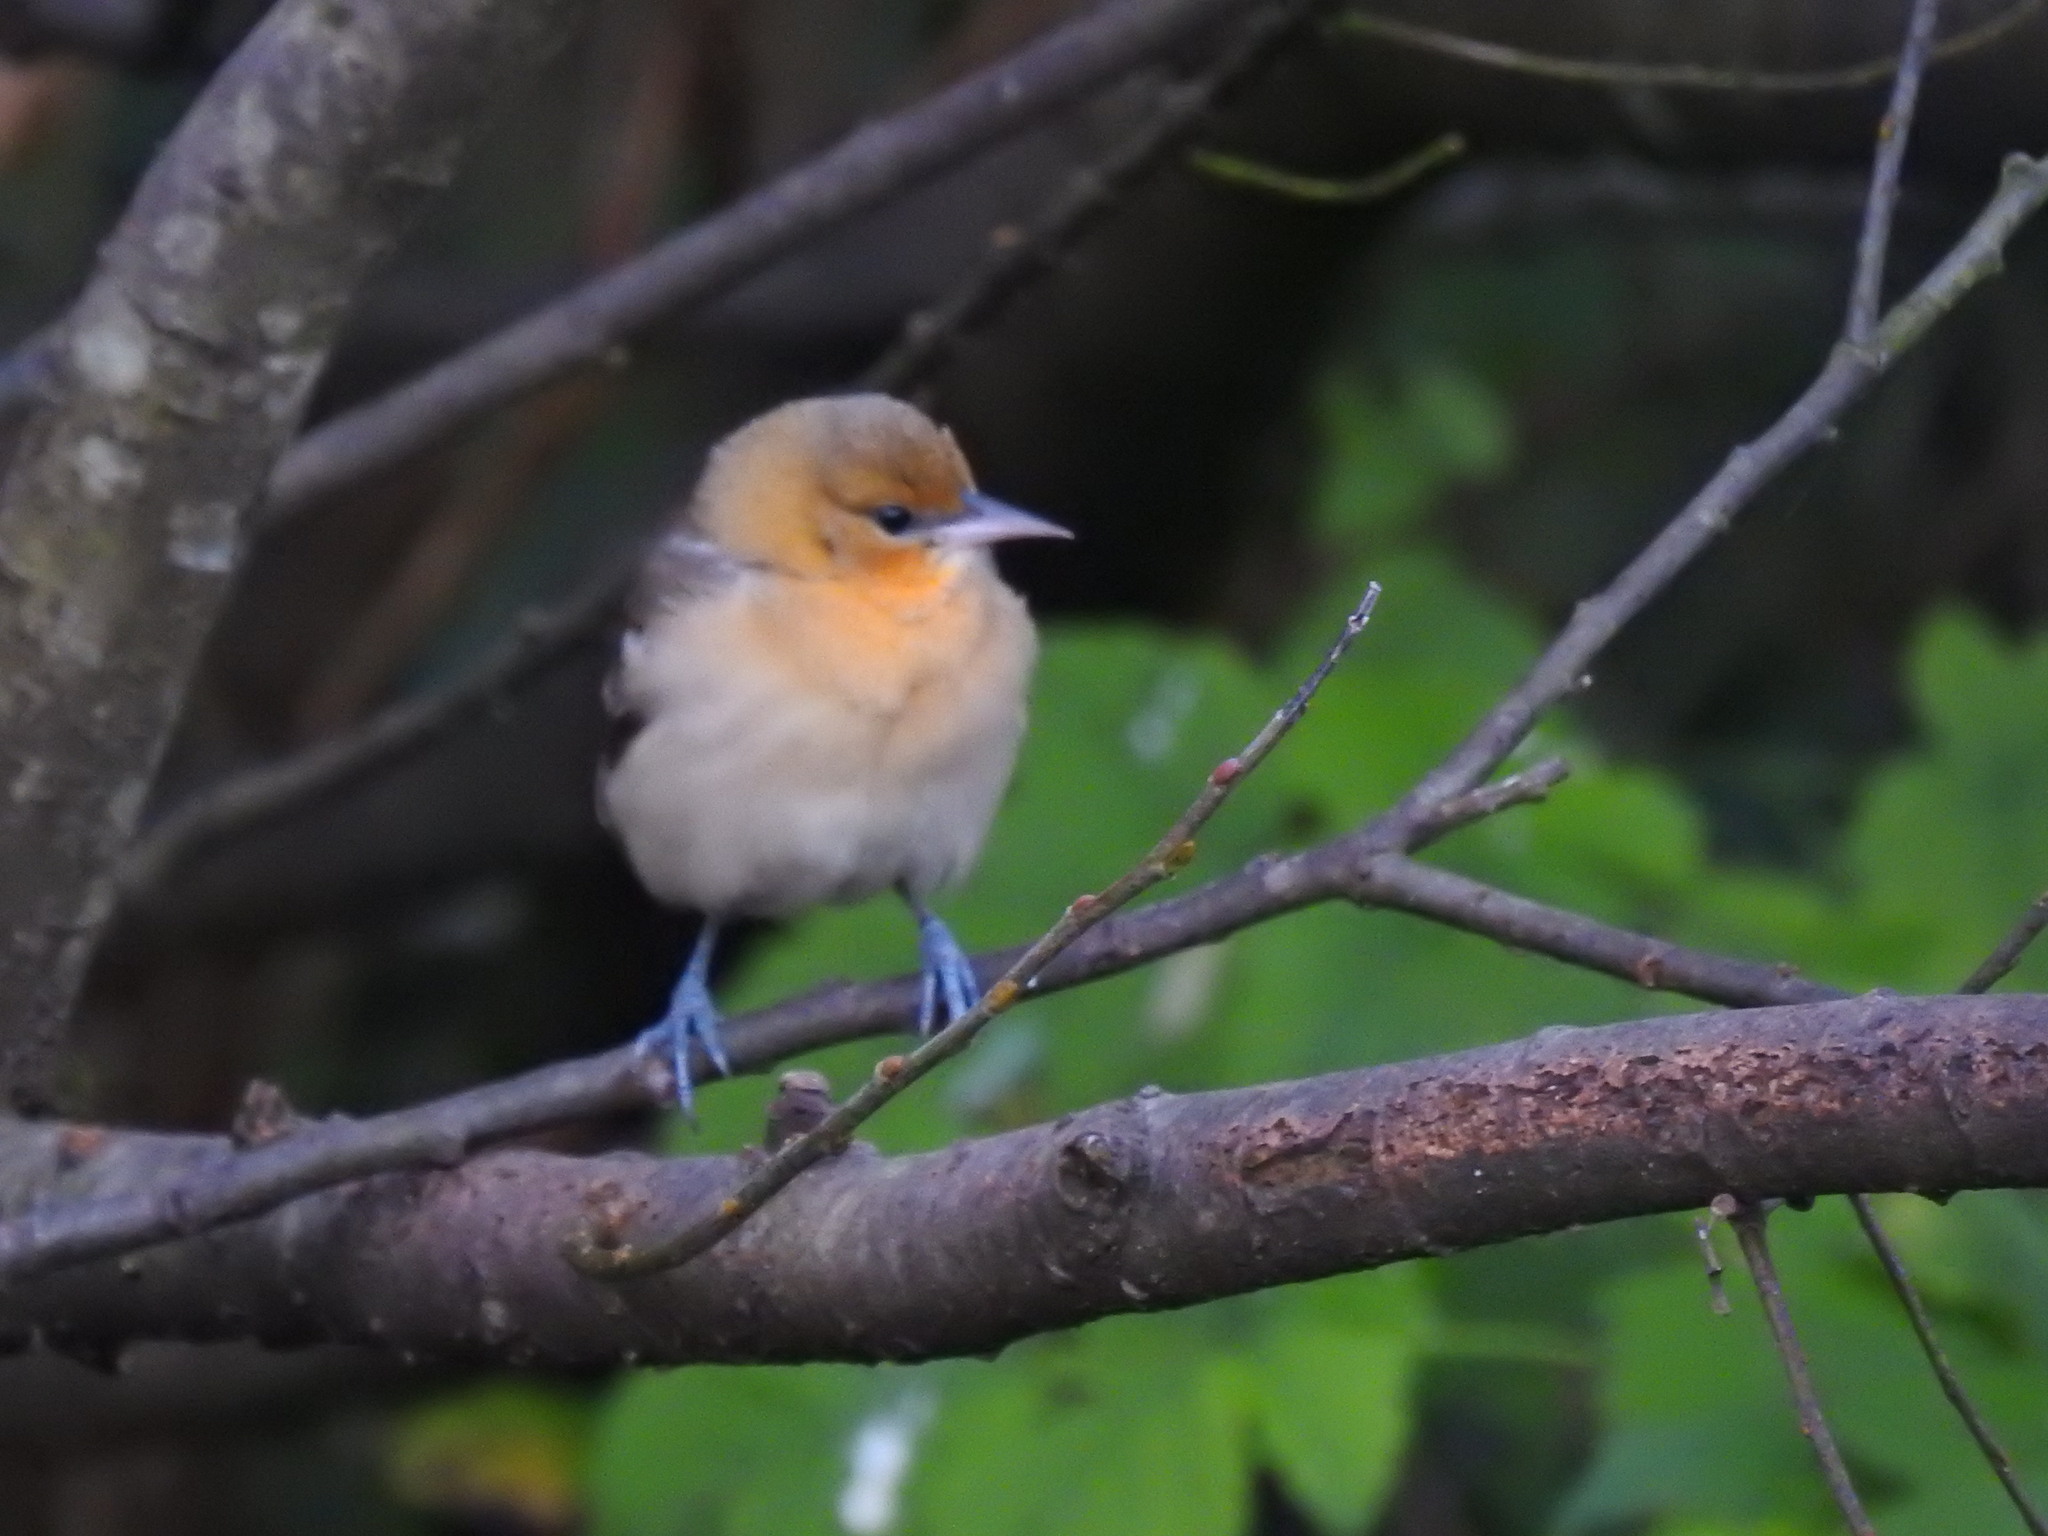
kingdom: Animalia
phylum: Chordata
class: Aves
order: Passeriformes
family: Icteridae
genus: Icterus
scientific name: Icterus bullockii
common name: Bullock's oriole
